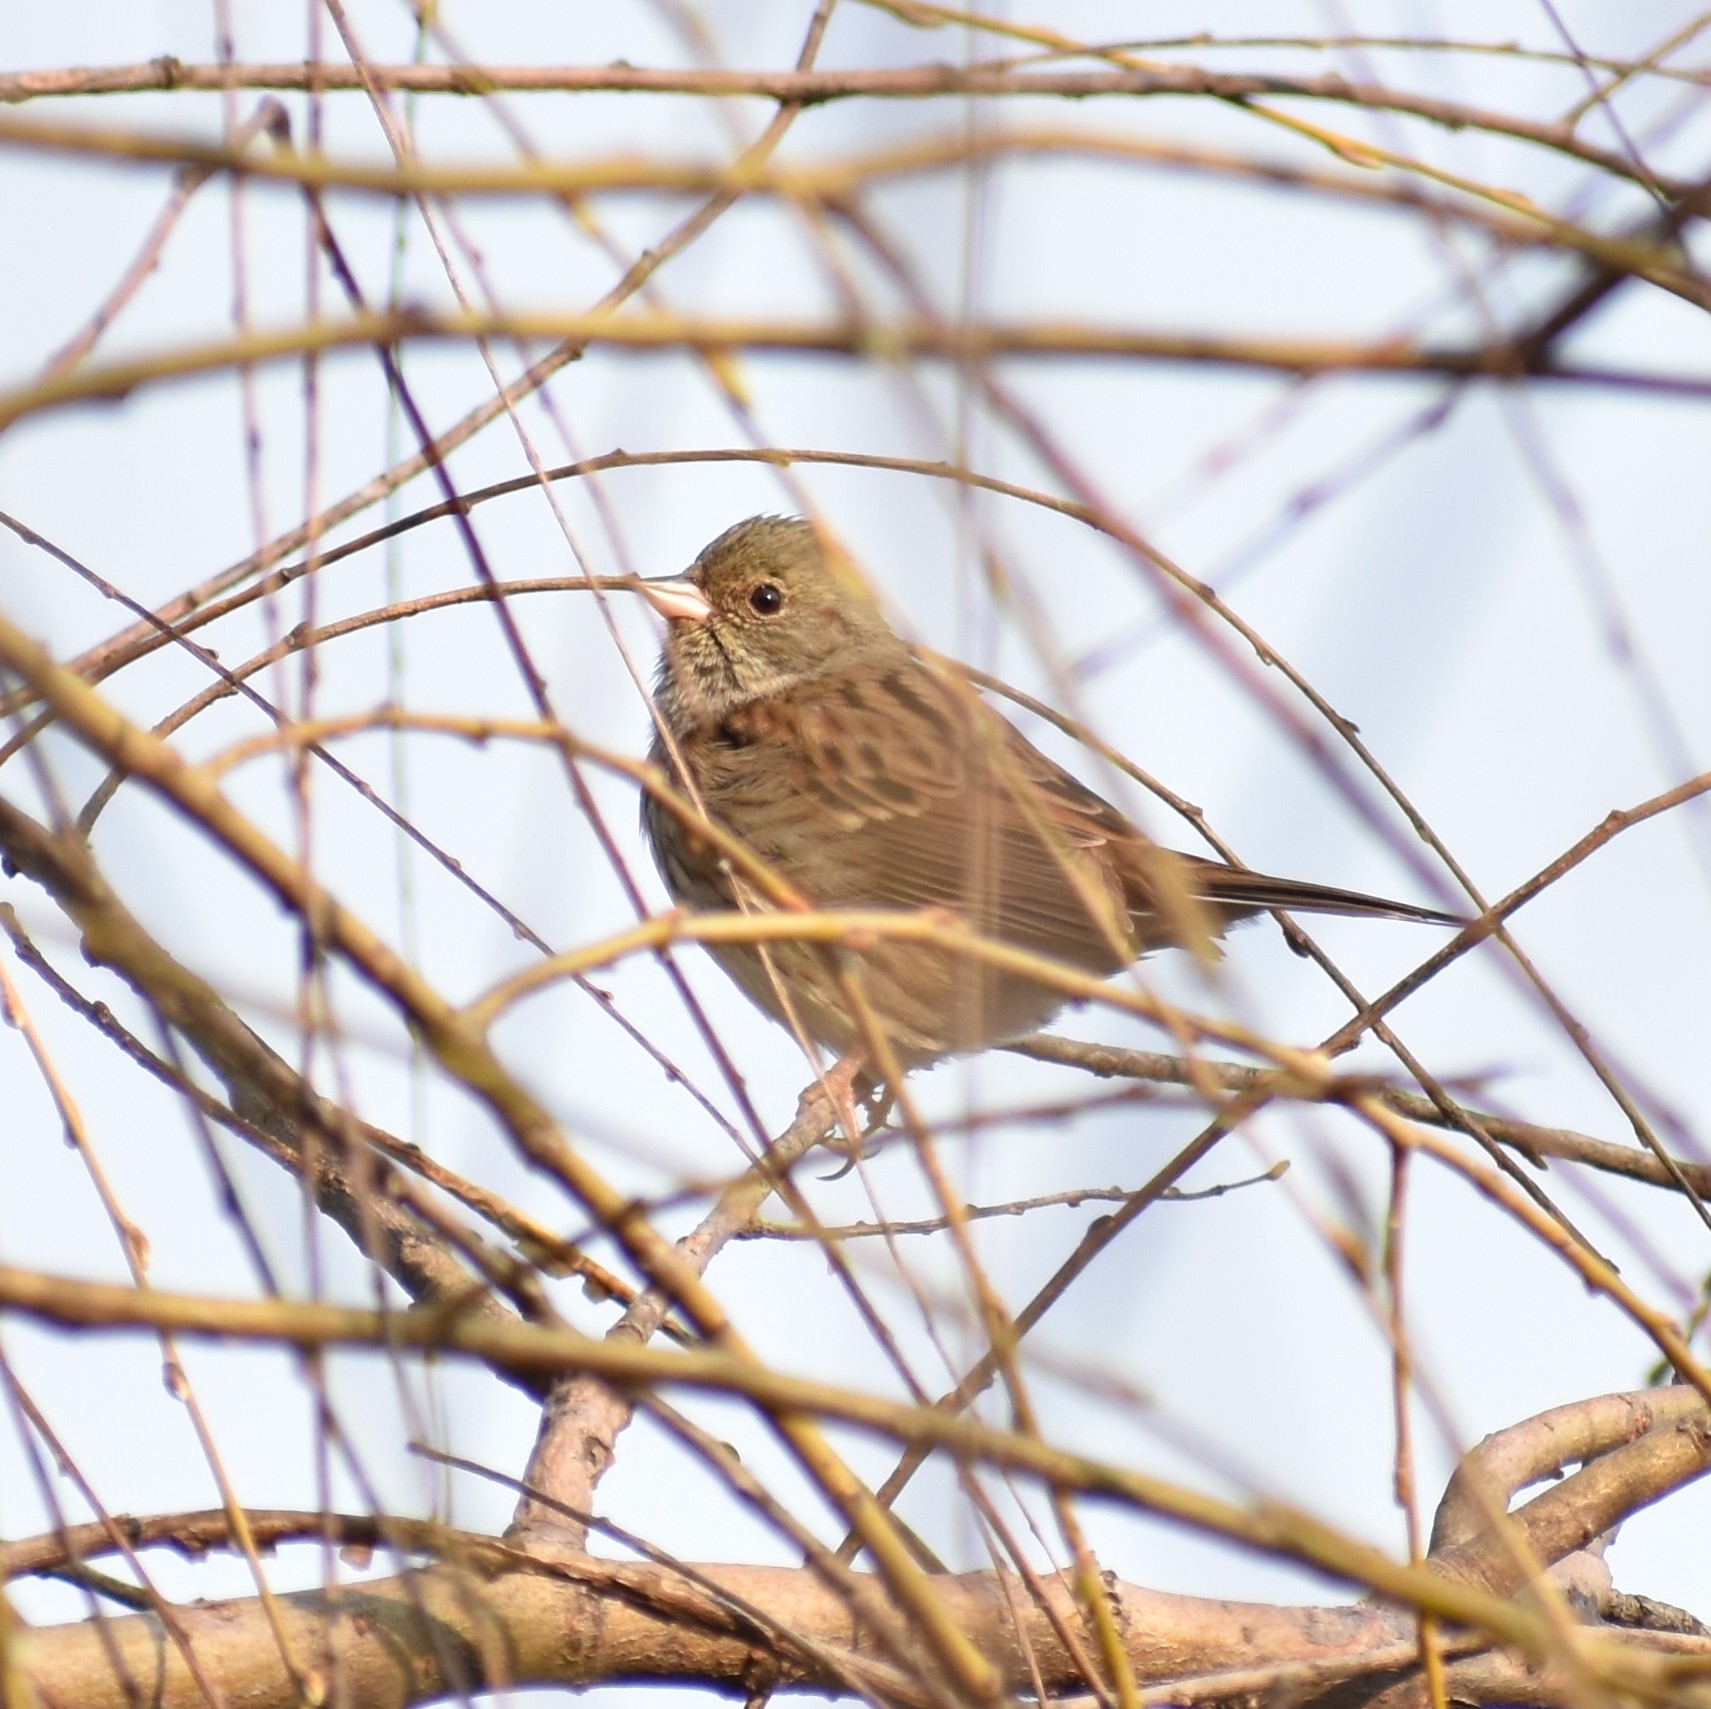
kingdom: Animalia
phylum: Chordata
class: Aves
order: Passeriformes
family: Emberizidae
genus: Emberiza
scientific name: Emberiza spodocephala
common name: Black-faced bunting
